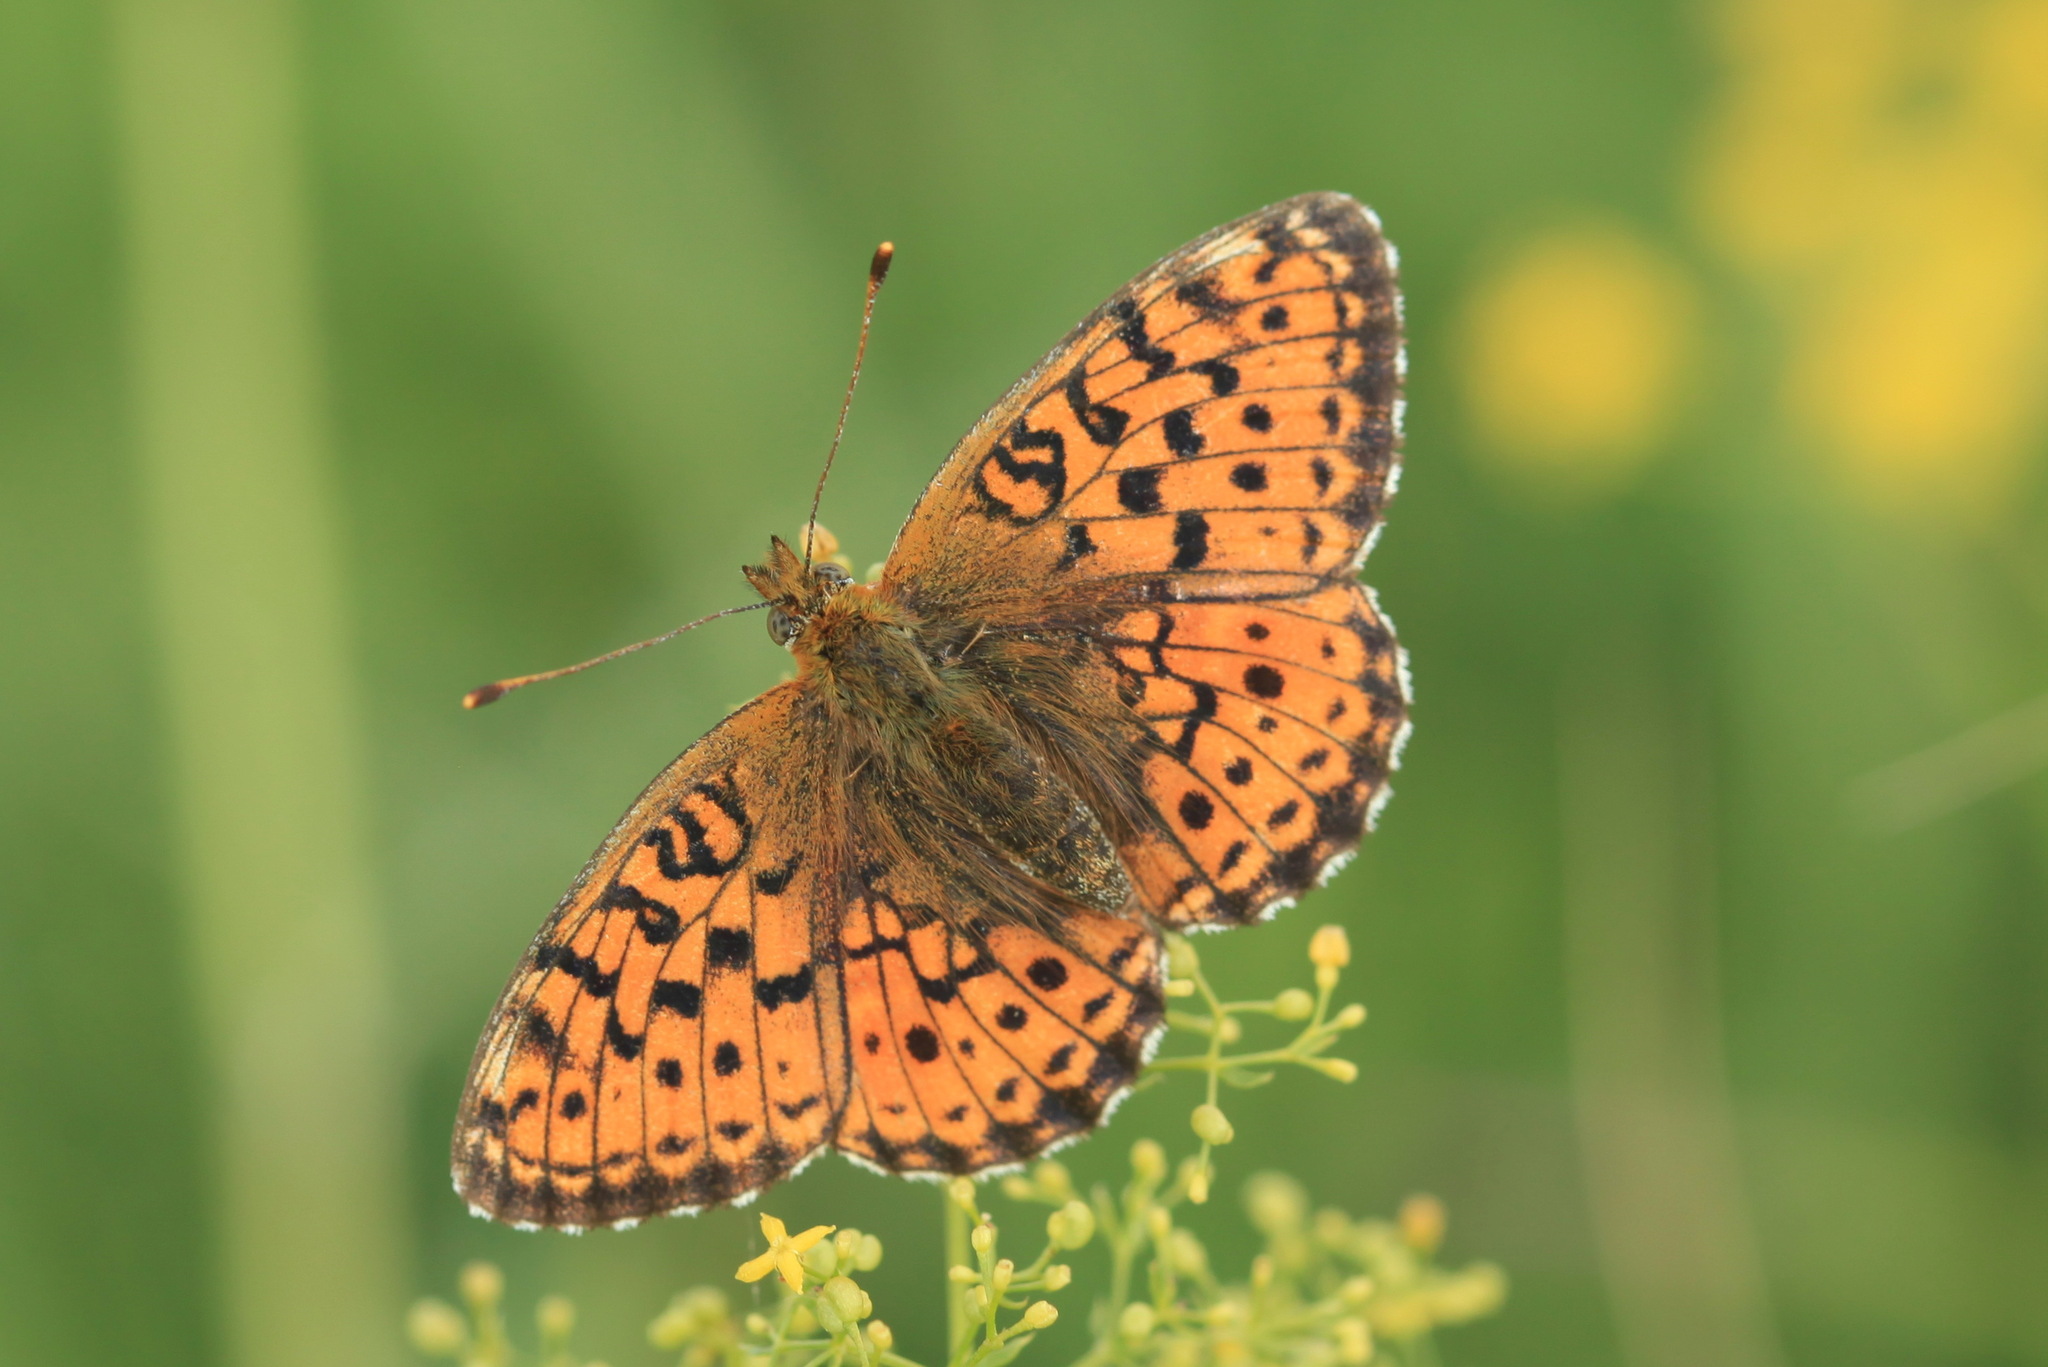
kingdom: Animalia
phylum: Arthropoda
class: Insecta
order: Lepidoptera
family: Nymphalidae
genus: Brenthis
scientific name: Brenthis ino
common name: Lesser marbled fritillary
